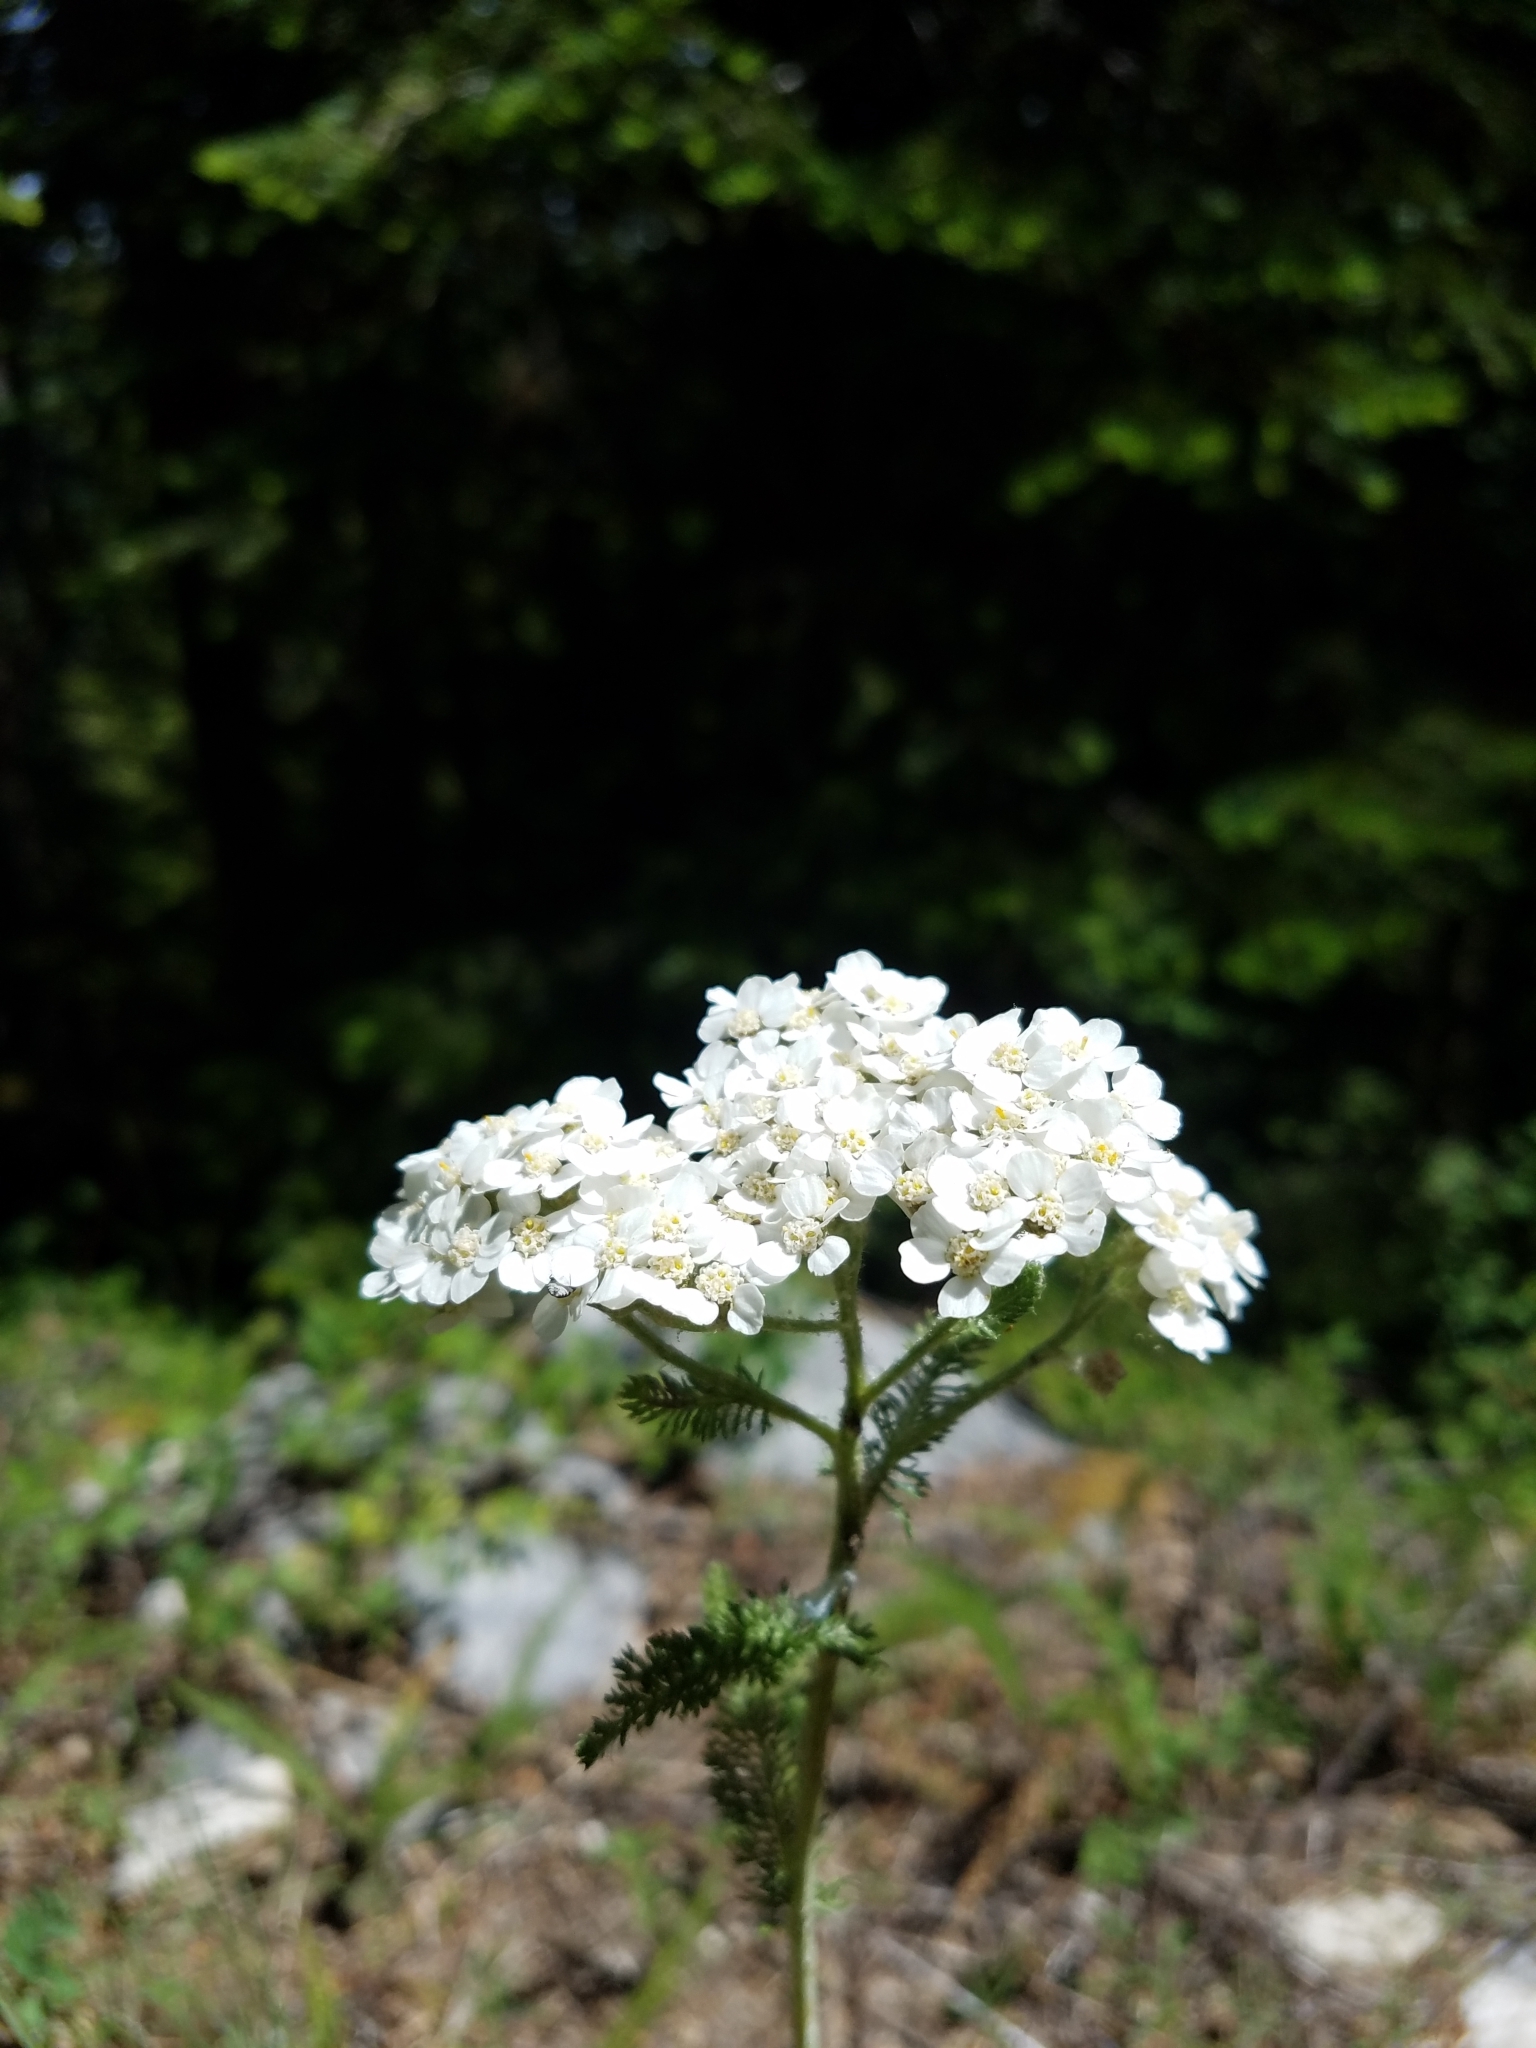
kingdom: Plantae
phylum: Tracheophyta
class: Magnoliopsida
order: Asterales
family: Asteraceae
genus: Achillea
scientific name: Achillea millefolium
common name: Yarrow
